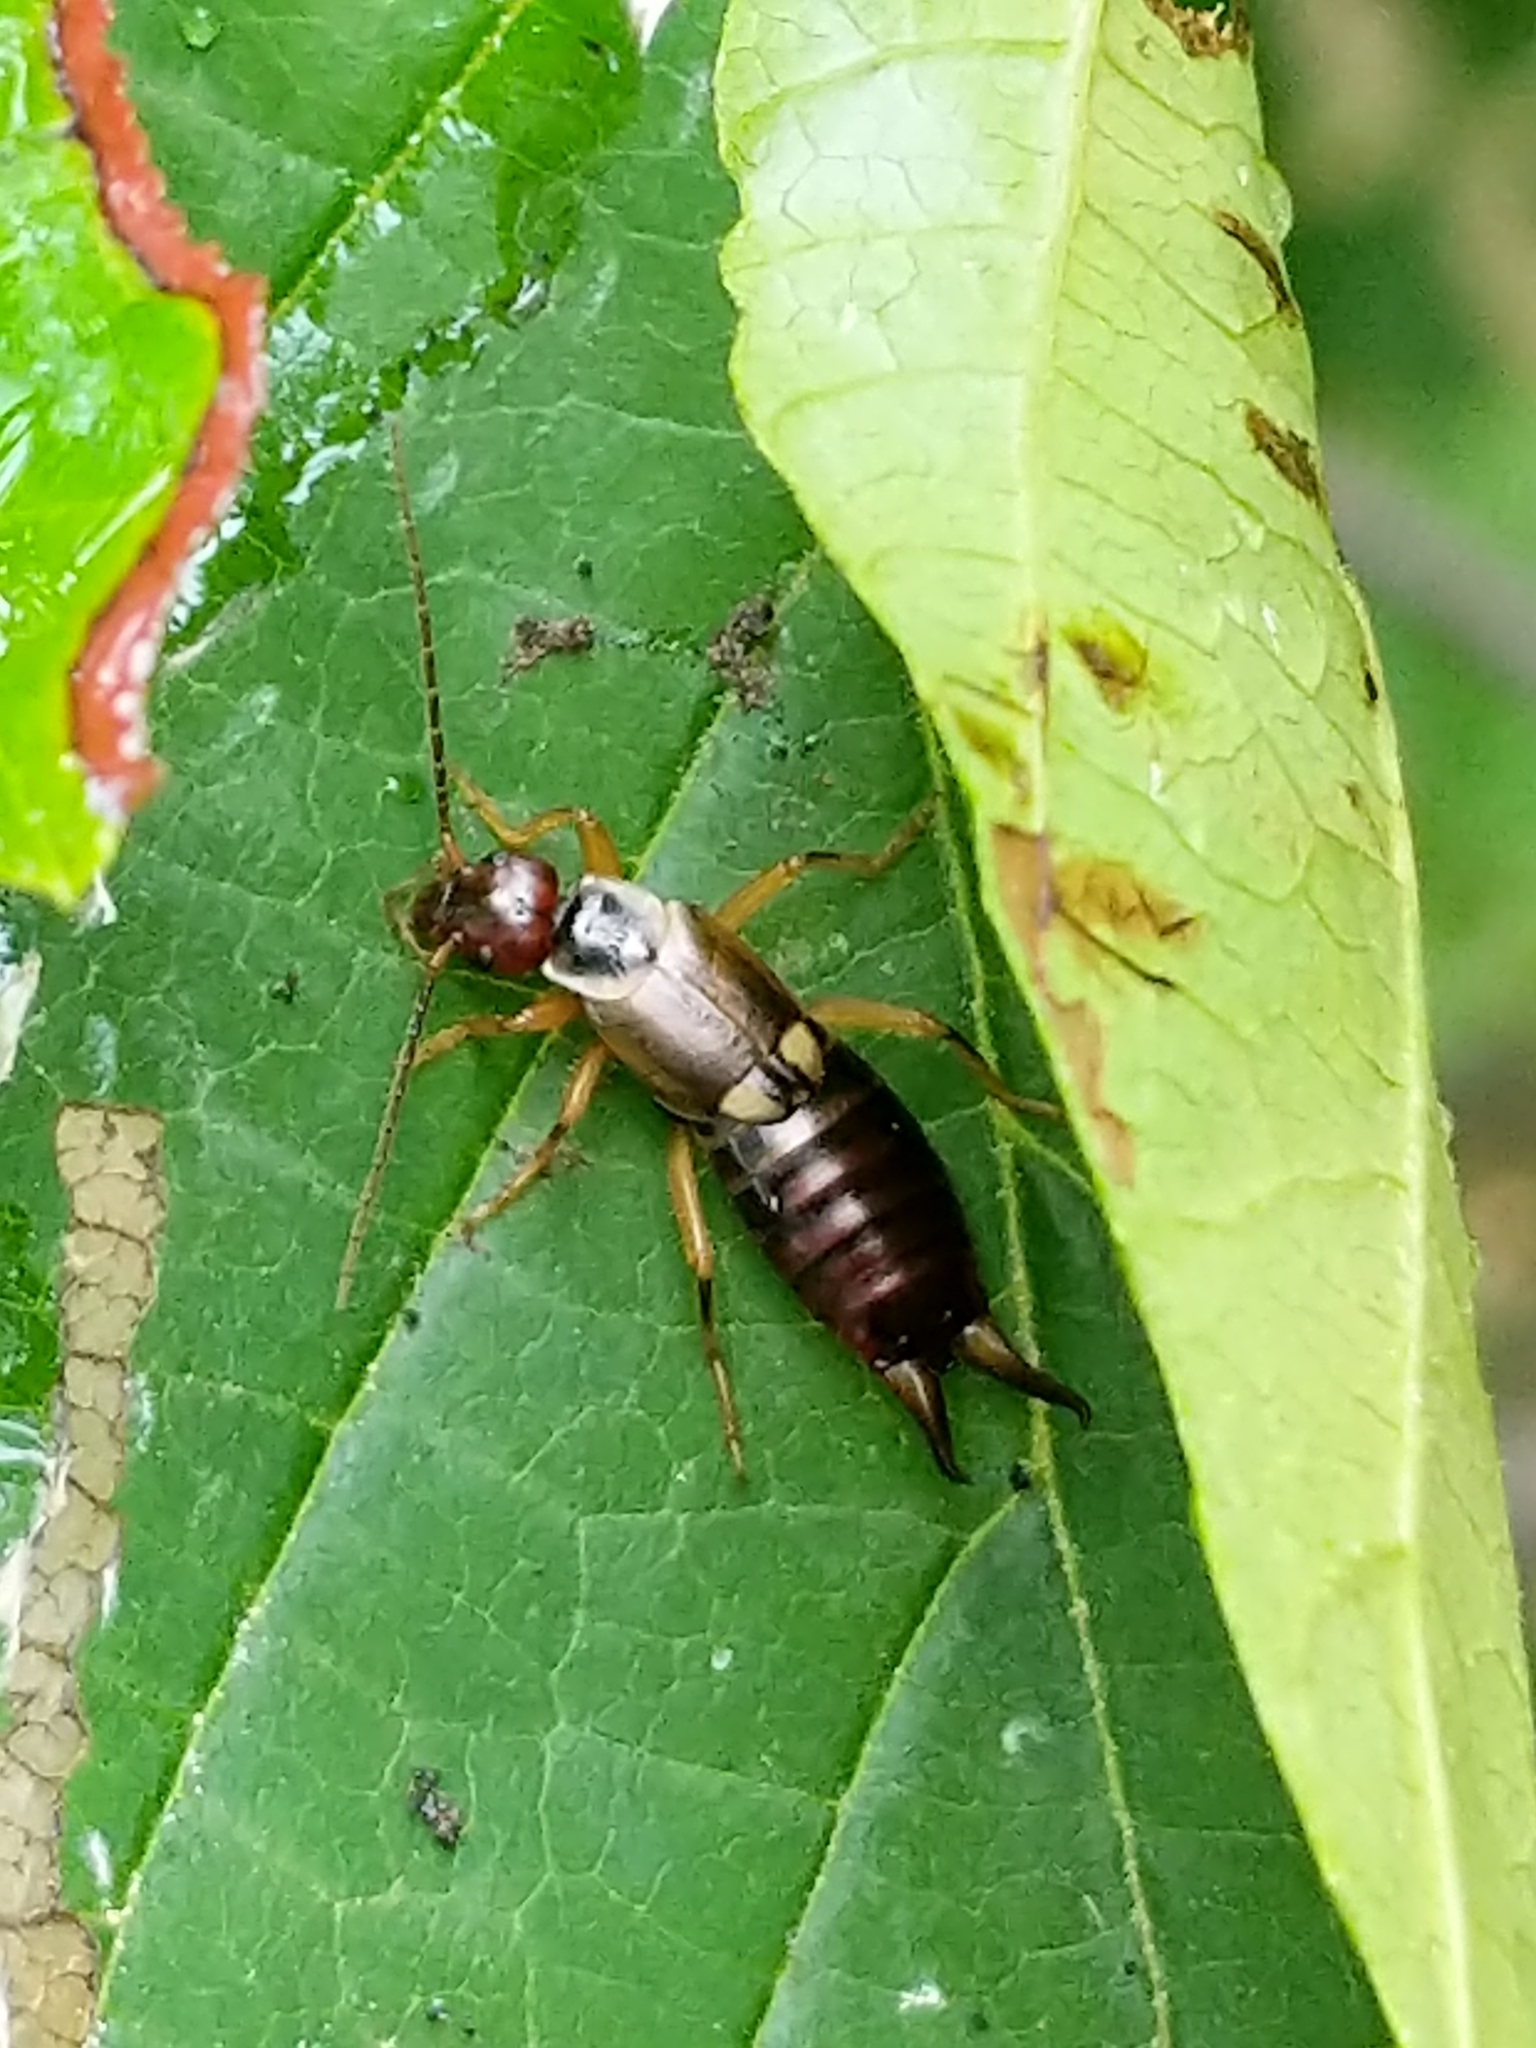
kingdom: Animalia
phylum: Arthropoda
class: Insecta
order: Dermaptera
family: Forficulidae
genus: Forficula
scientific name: Forficula
